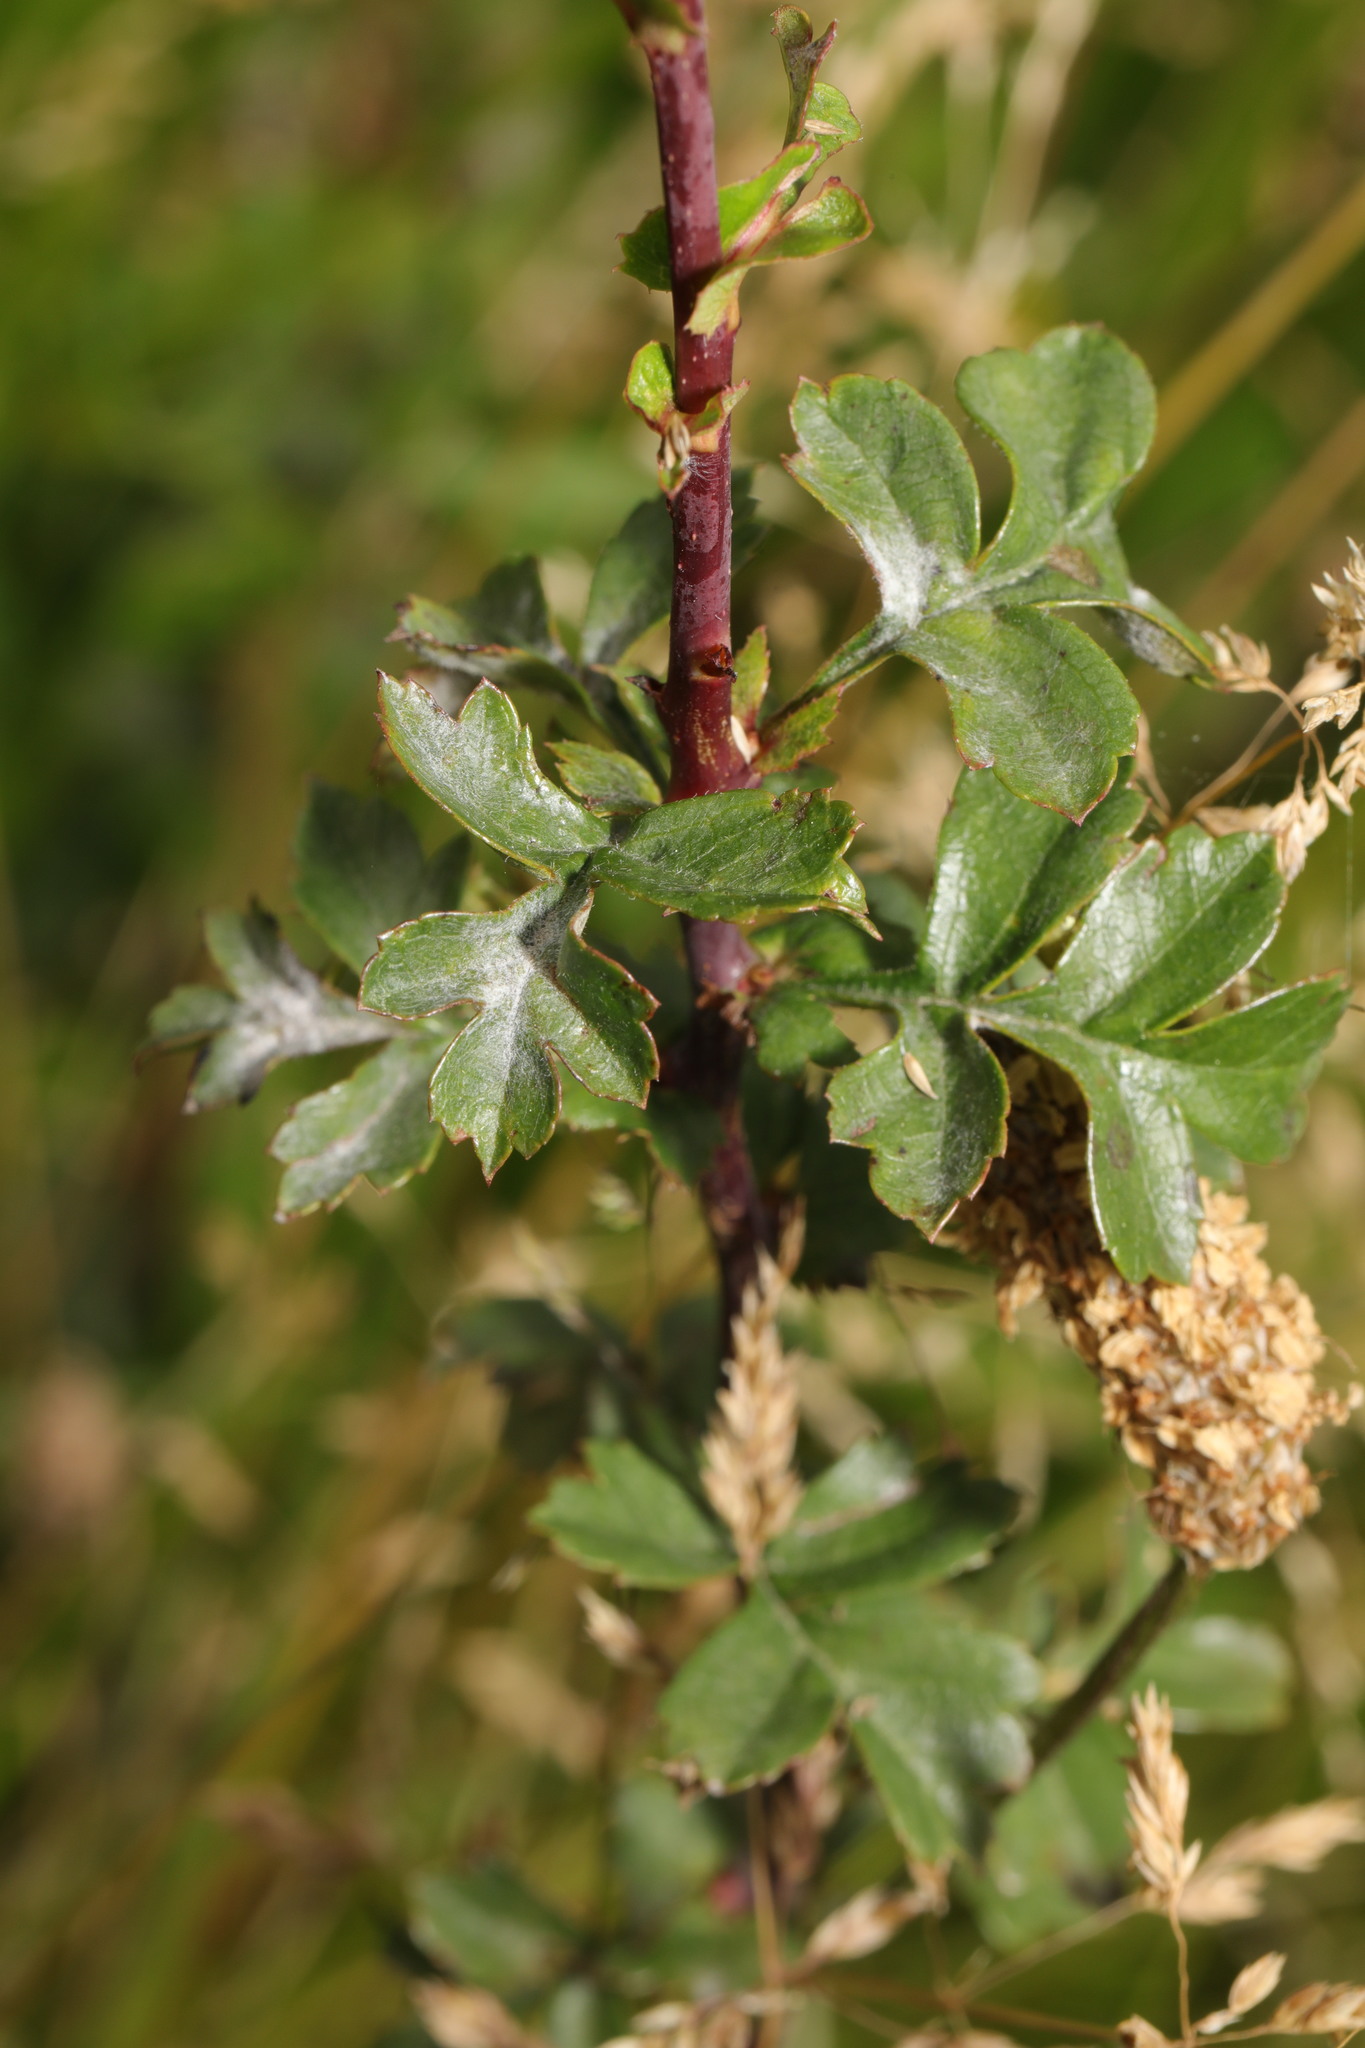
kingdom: Plantae
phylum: Tracheophyta
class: Magnoliopsida
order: Rosales
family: Rosaceae
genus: Crataegus
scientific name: Crataegus monogyna
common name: Hawthorn
